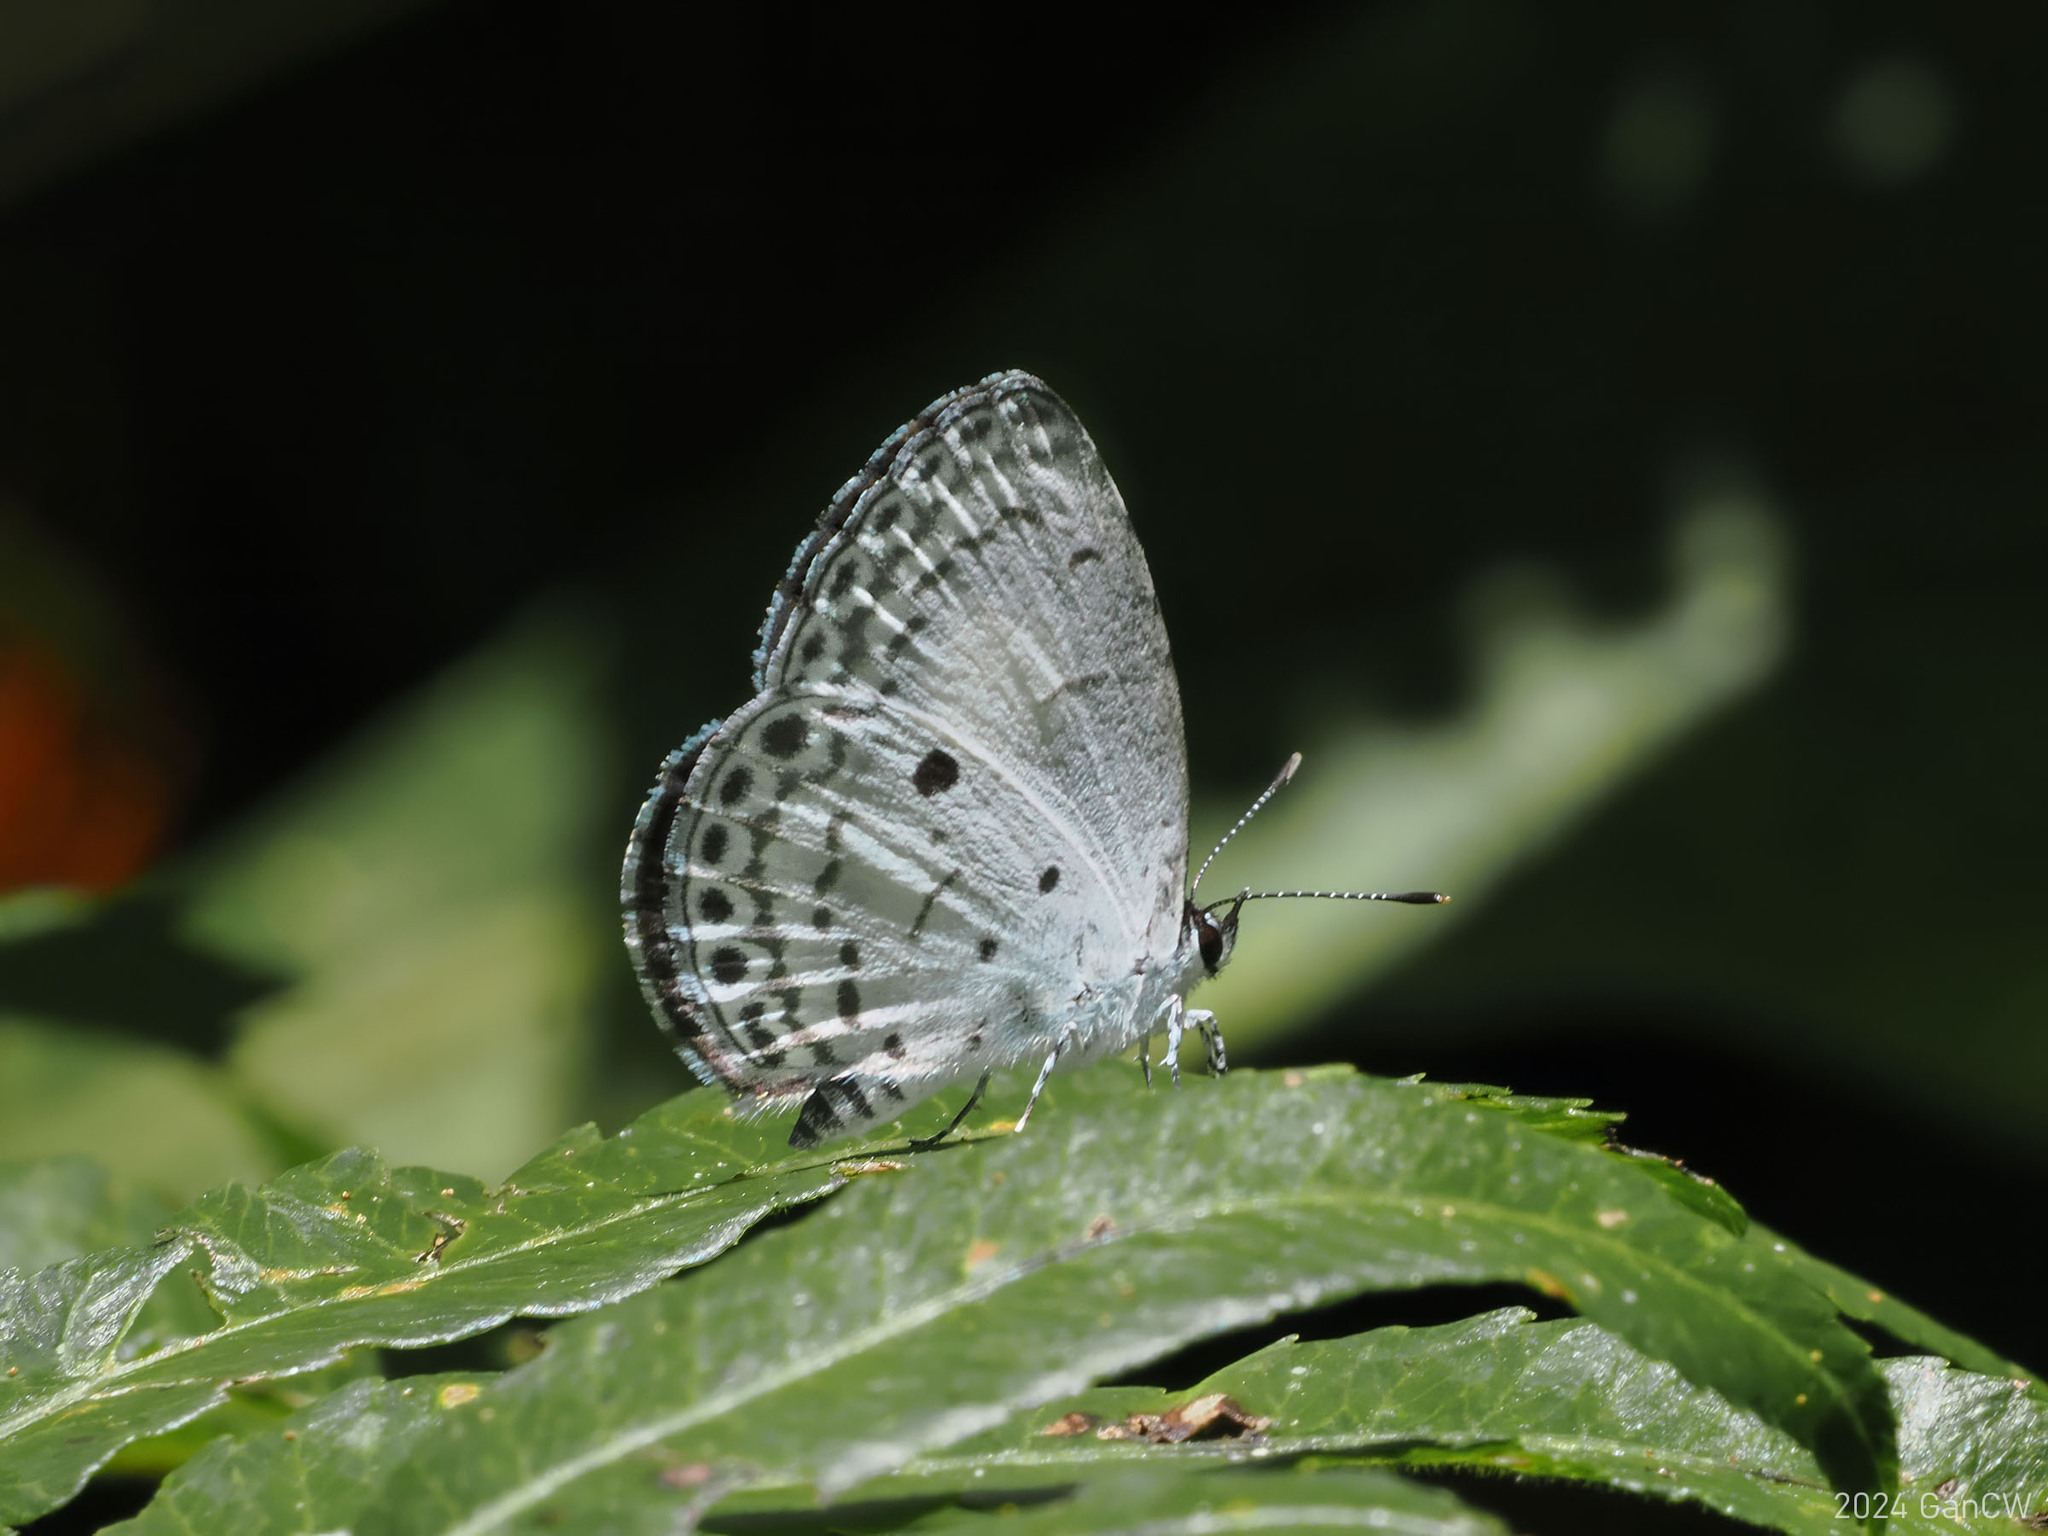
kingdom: Animalia
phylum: Arthropoda
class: Insecta
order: Lepidoptera
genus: Sancterila
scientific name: Sancterila
